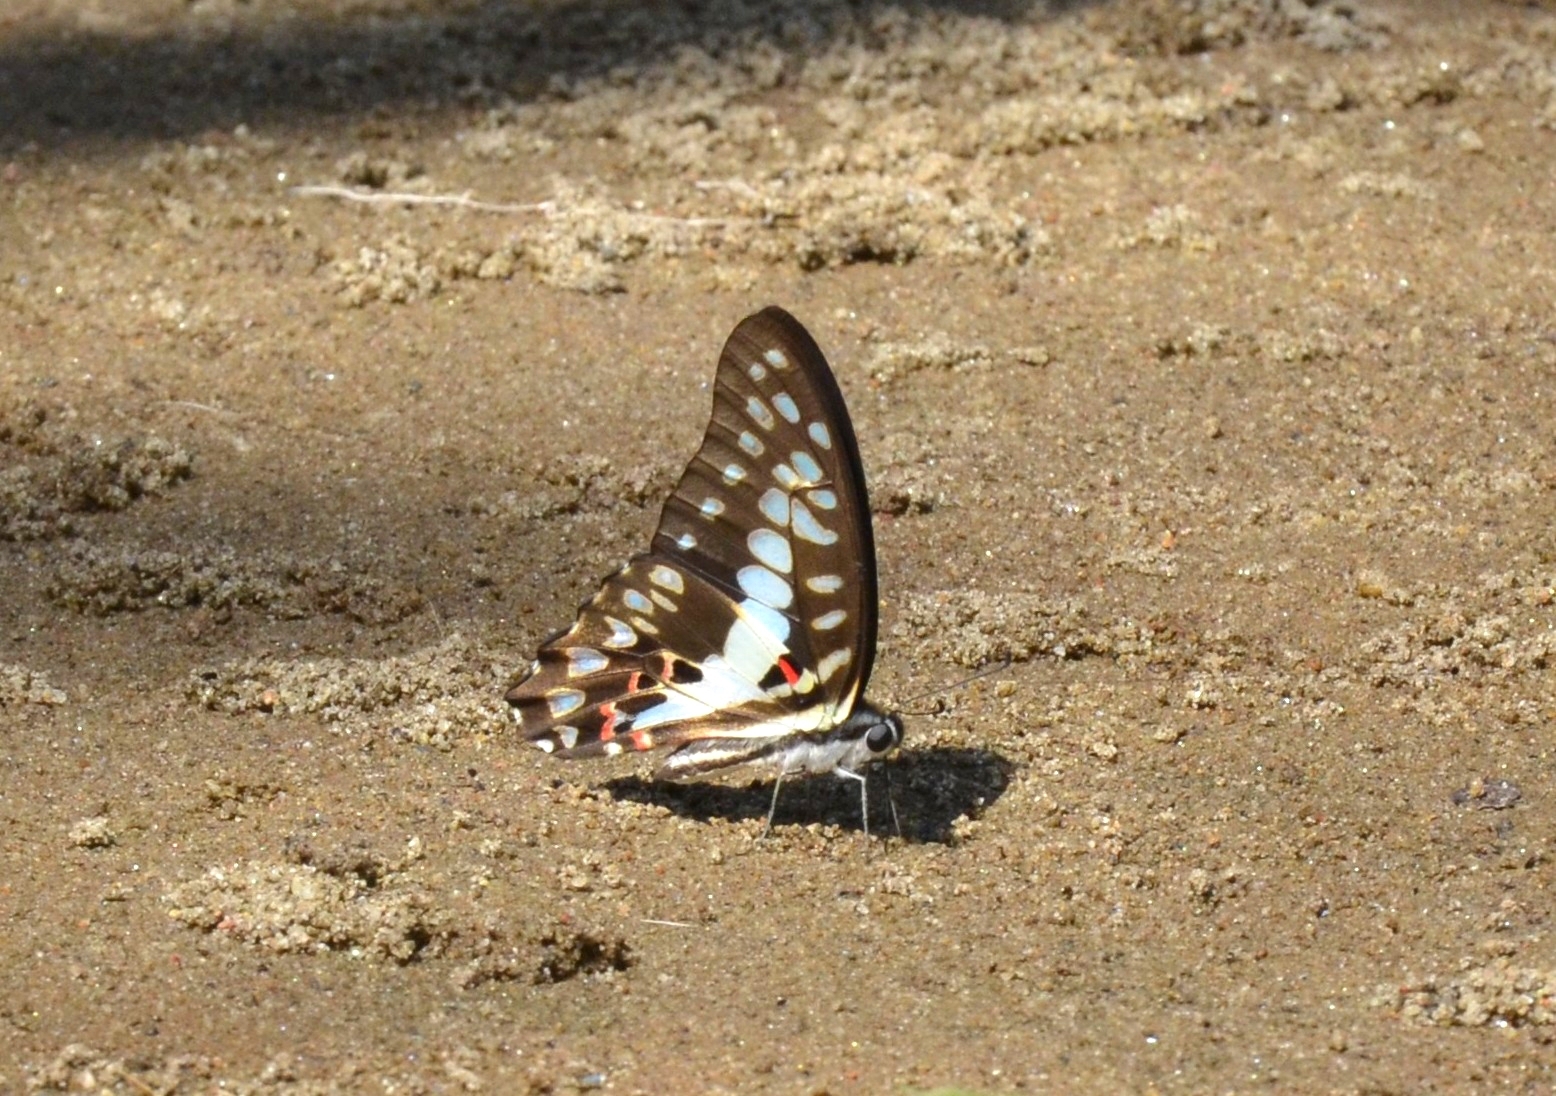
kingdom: Animalia
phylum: Arthropoda
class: Insecta
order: Lepidoptera
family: Papilionidae
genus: Graphium
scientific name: Graphium doson
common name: Common jay
